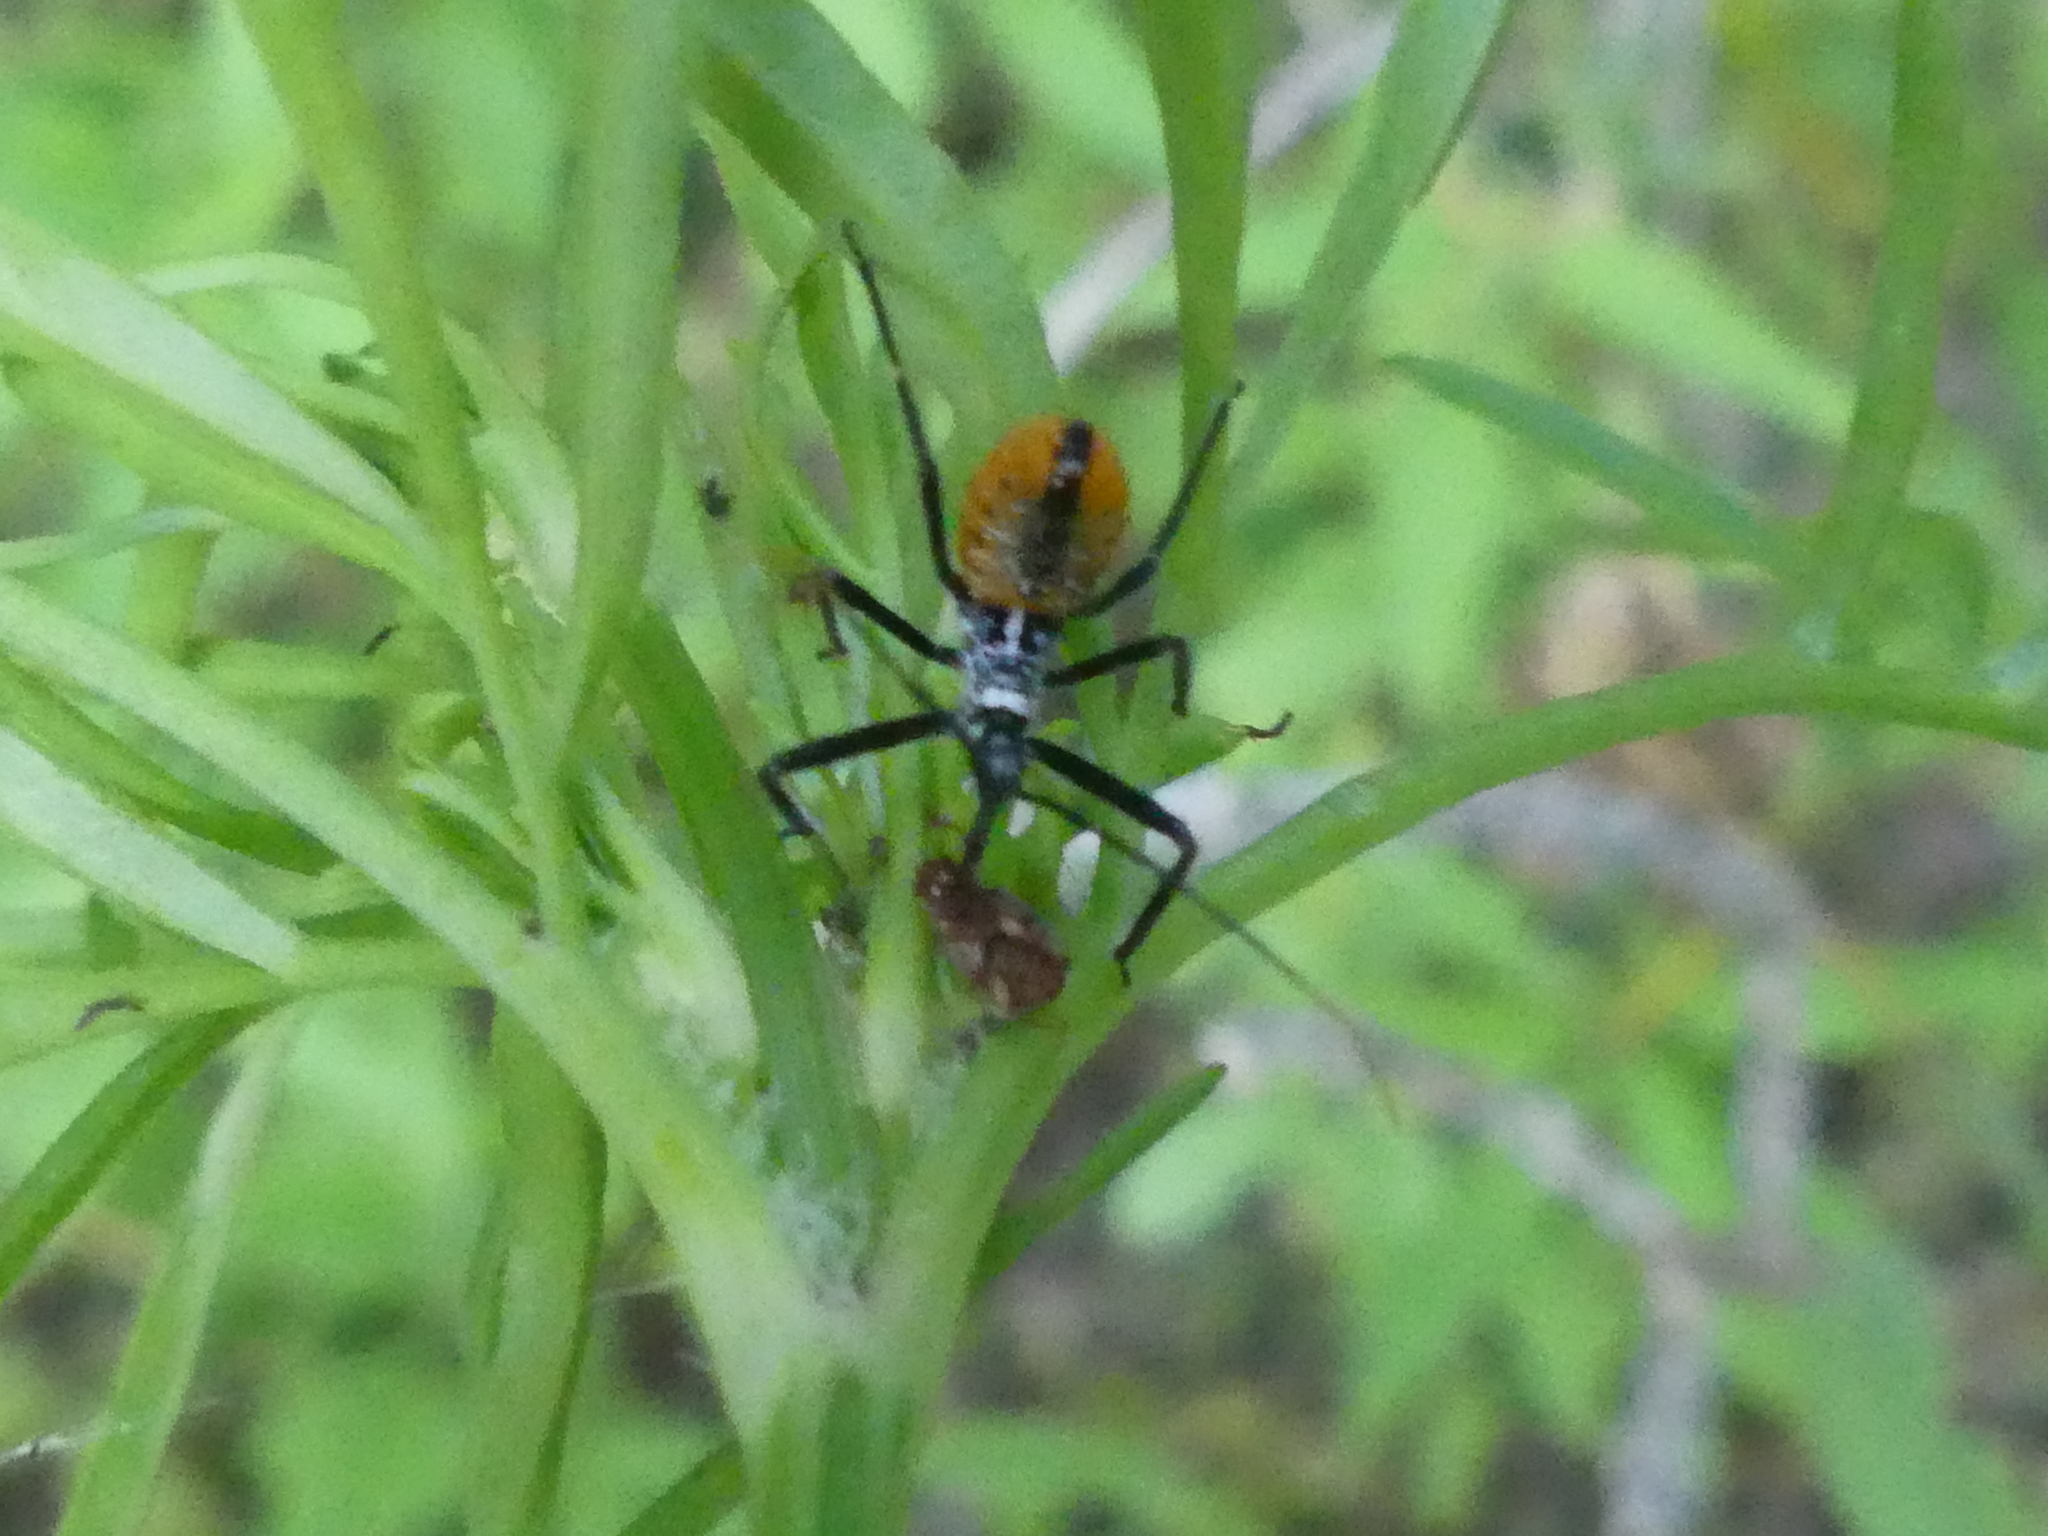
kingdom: Animalia
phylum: Arthropoda
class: Insecta
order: Hemiptera
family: Reduviidae
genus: Arilus
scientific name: Arilus cristatus
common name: North american wheel bug
